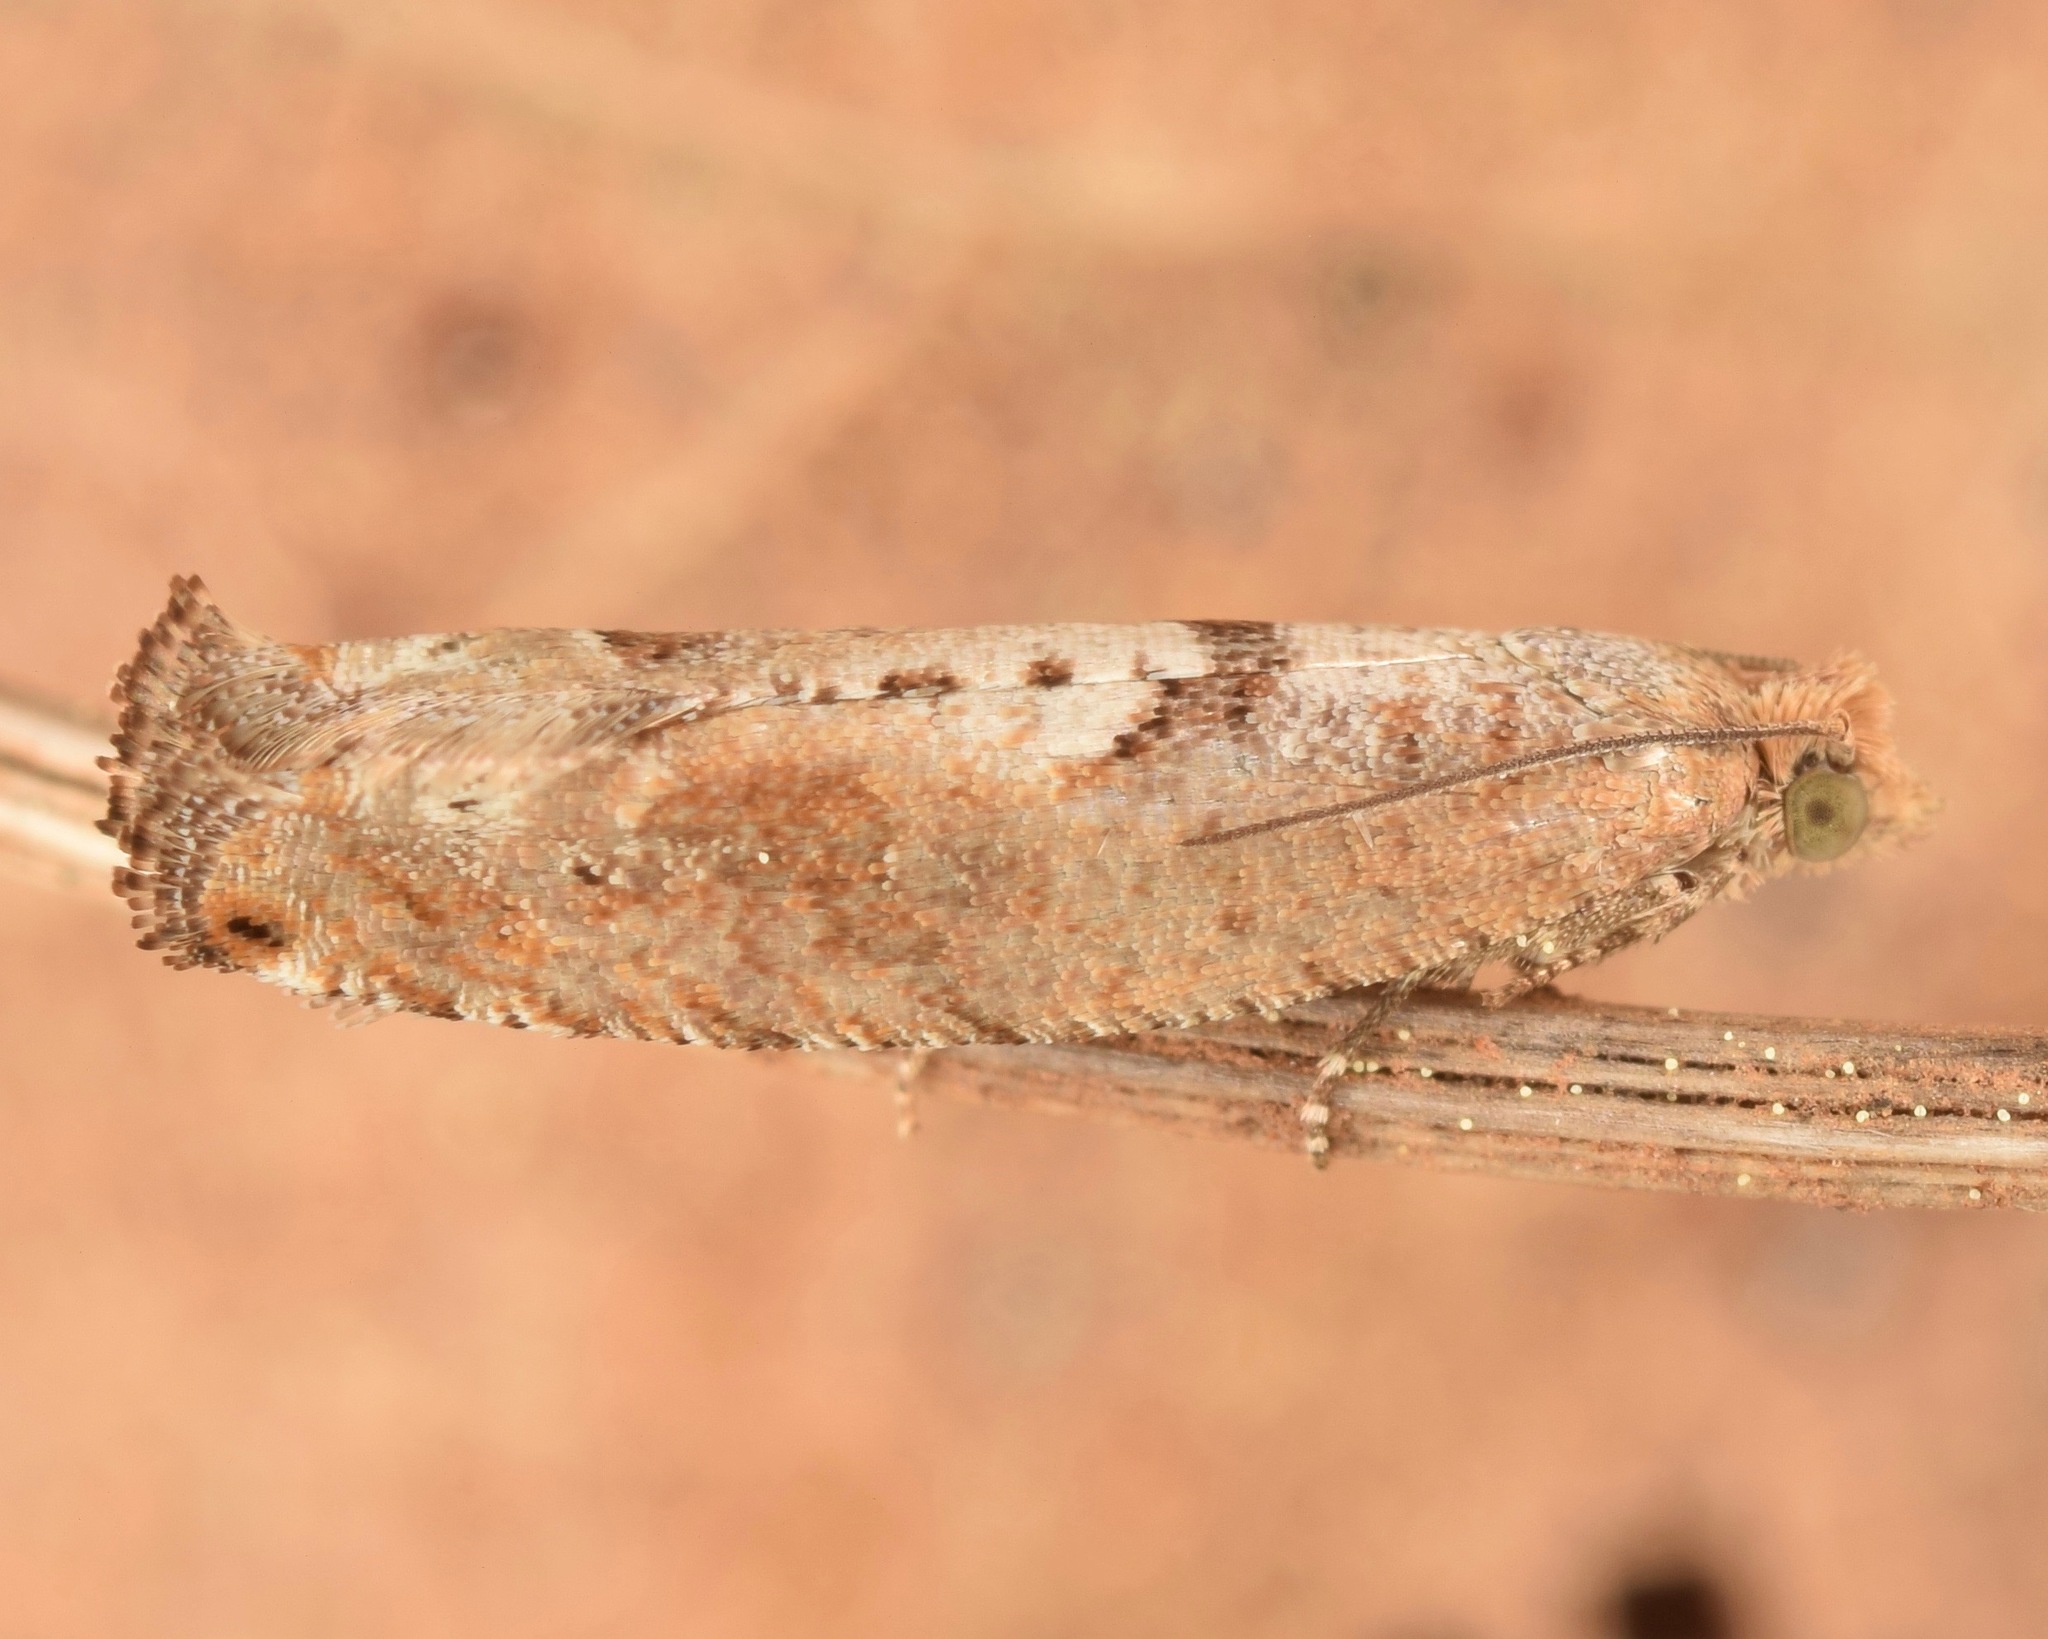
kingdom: Animalia
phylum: Arthropoda
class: Insecta
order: Lepidoptera
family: Tortricidae
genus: Pseudexentera
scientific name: Pseudexentera sepia
